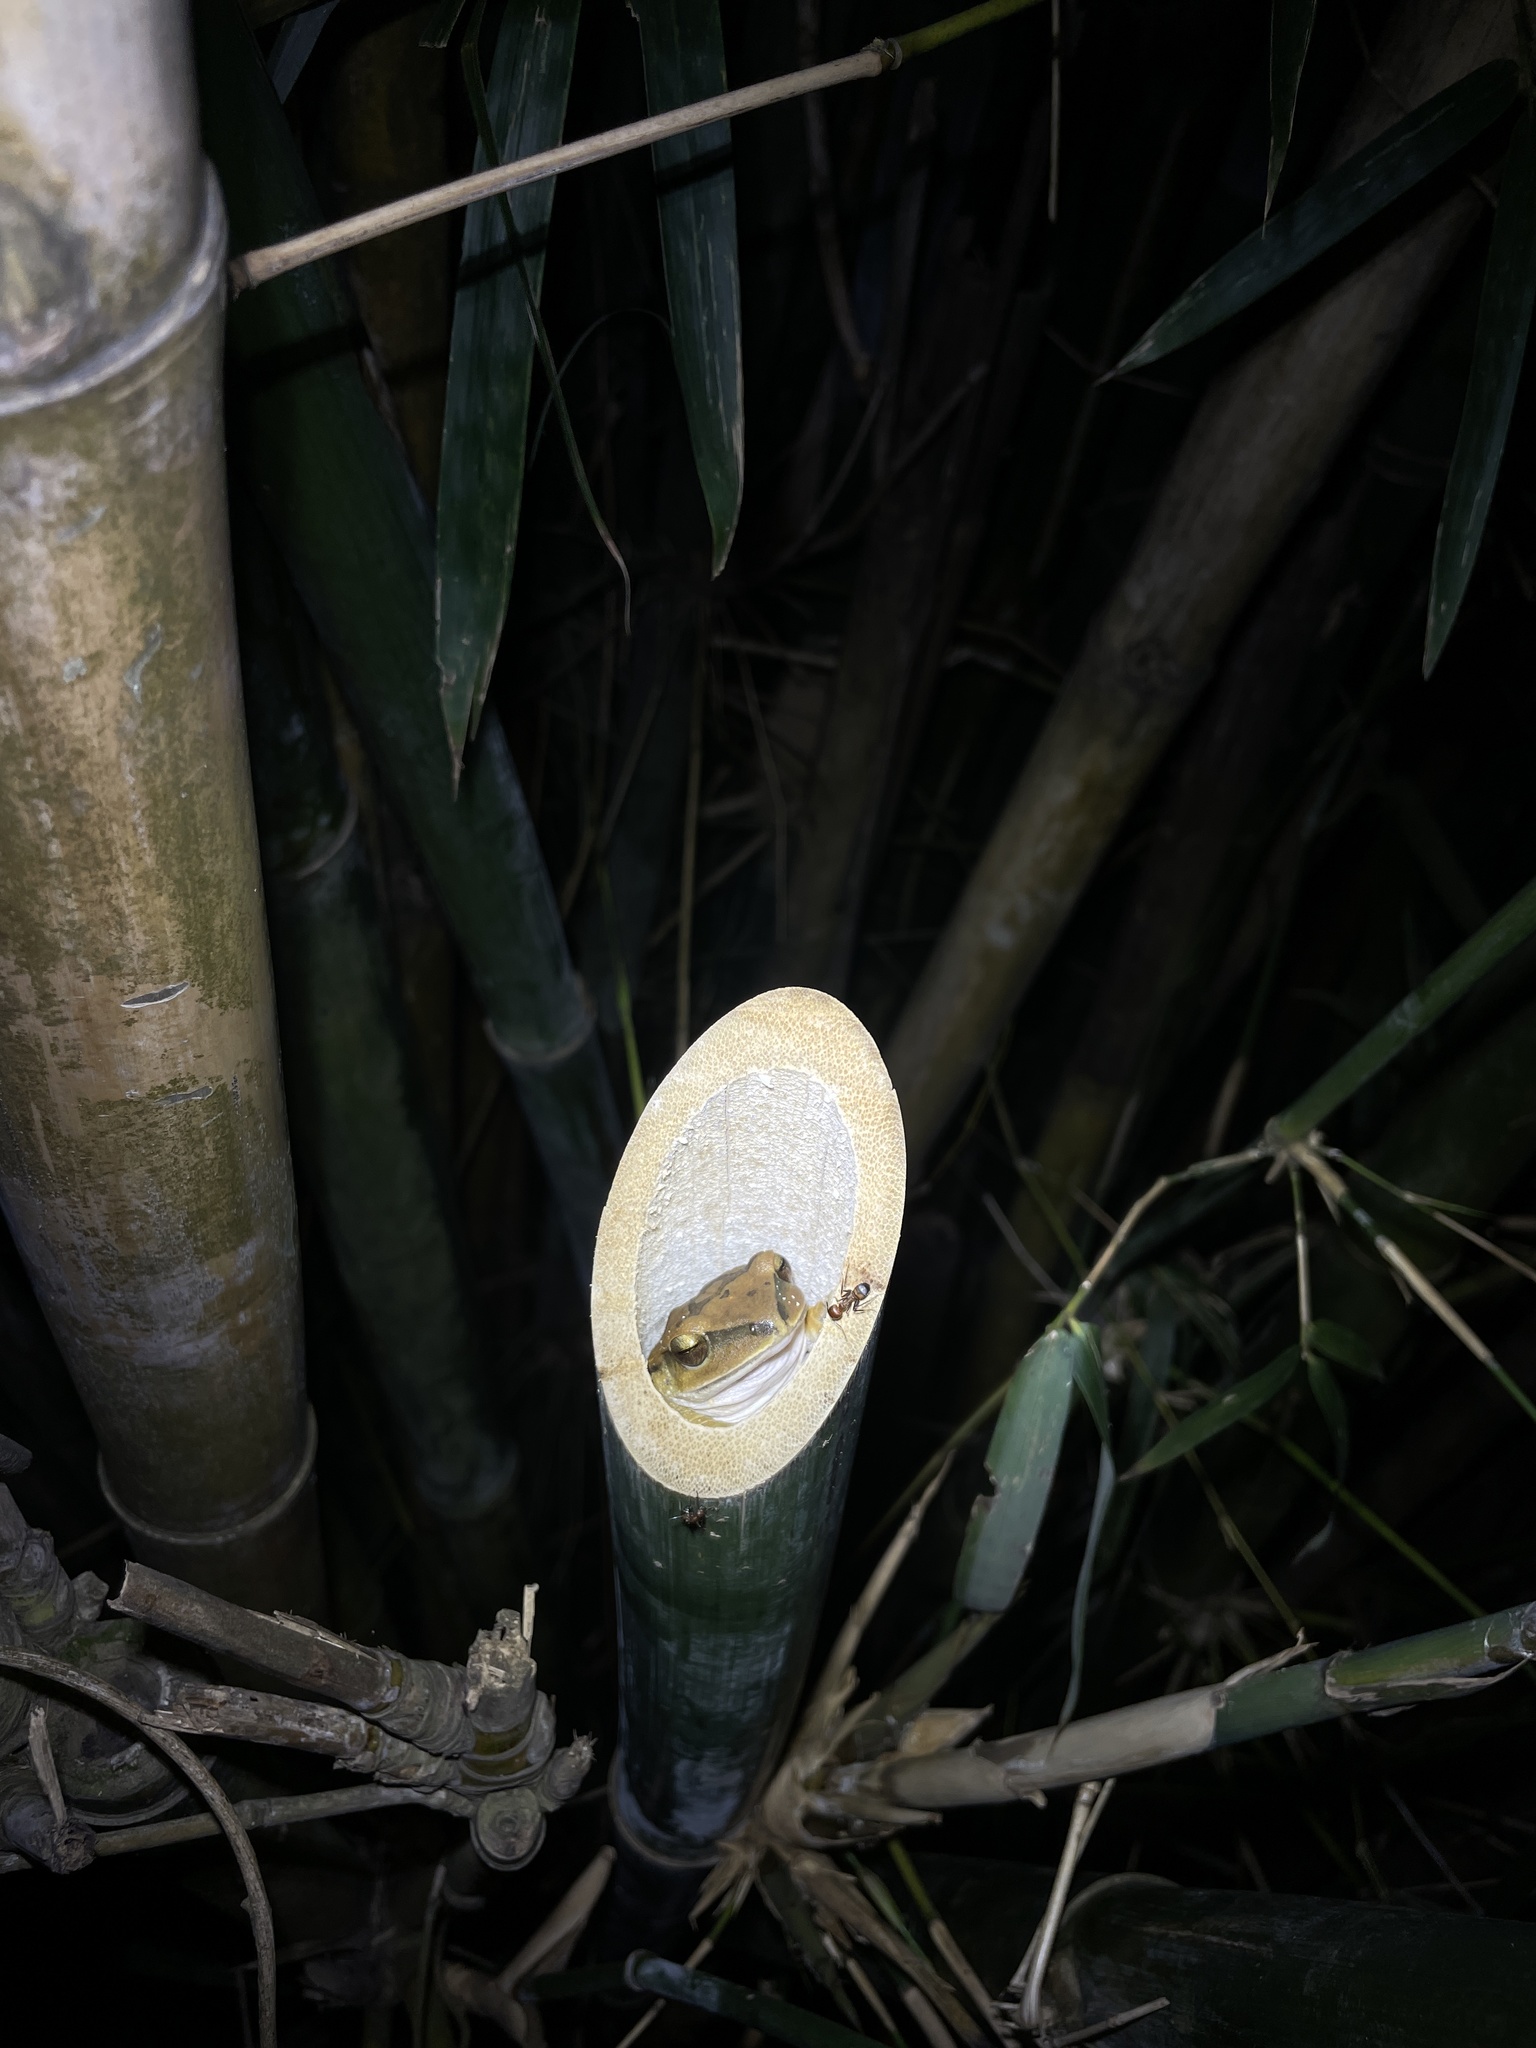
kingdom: Animalia
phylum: Chordata
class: Amphibia
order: Anura
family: Rhacophoridae
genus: Polypedates
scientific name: Polypedates megacephalus
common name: Hong kong whipping frog
